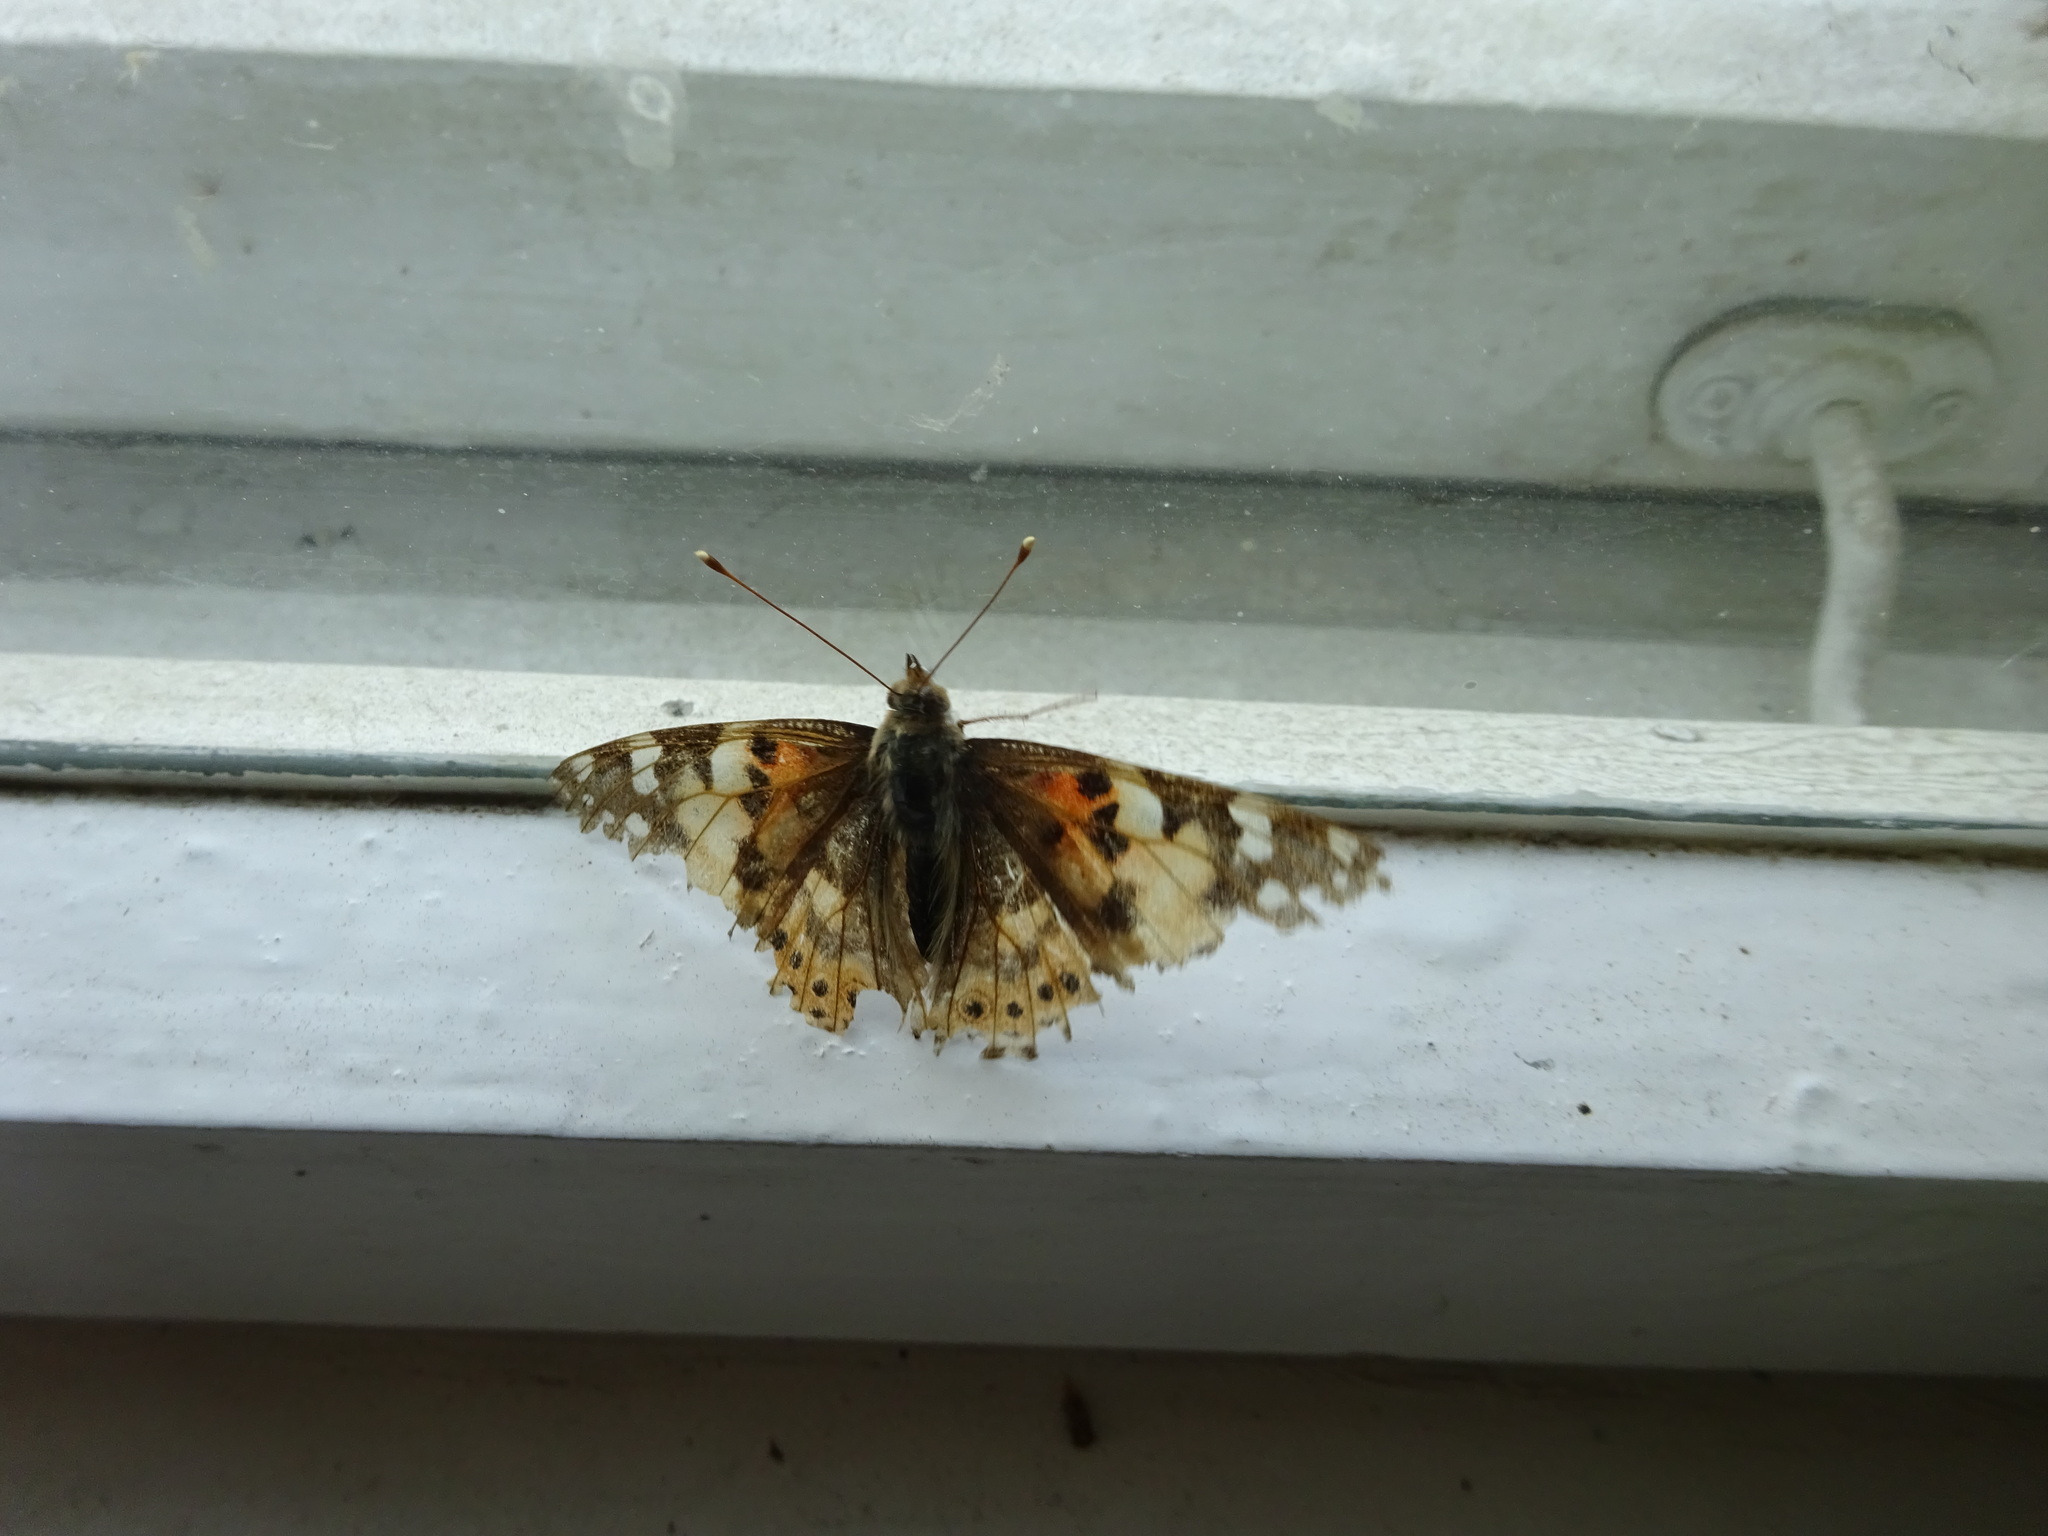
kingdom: Animalia
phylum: Arthropoda
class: Insecta
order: Lepidoptera
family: Nymphalidae
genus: Vanessa
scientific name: Vanessa cardui
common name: Painted lady
